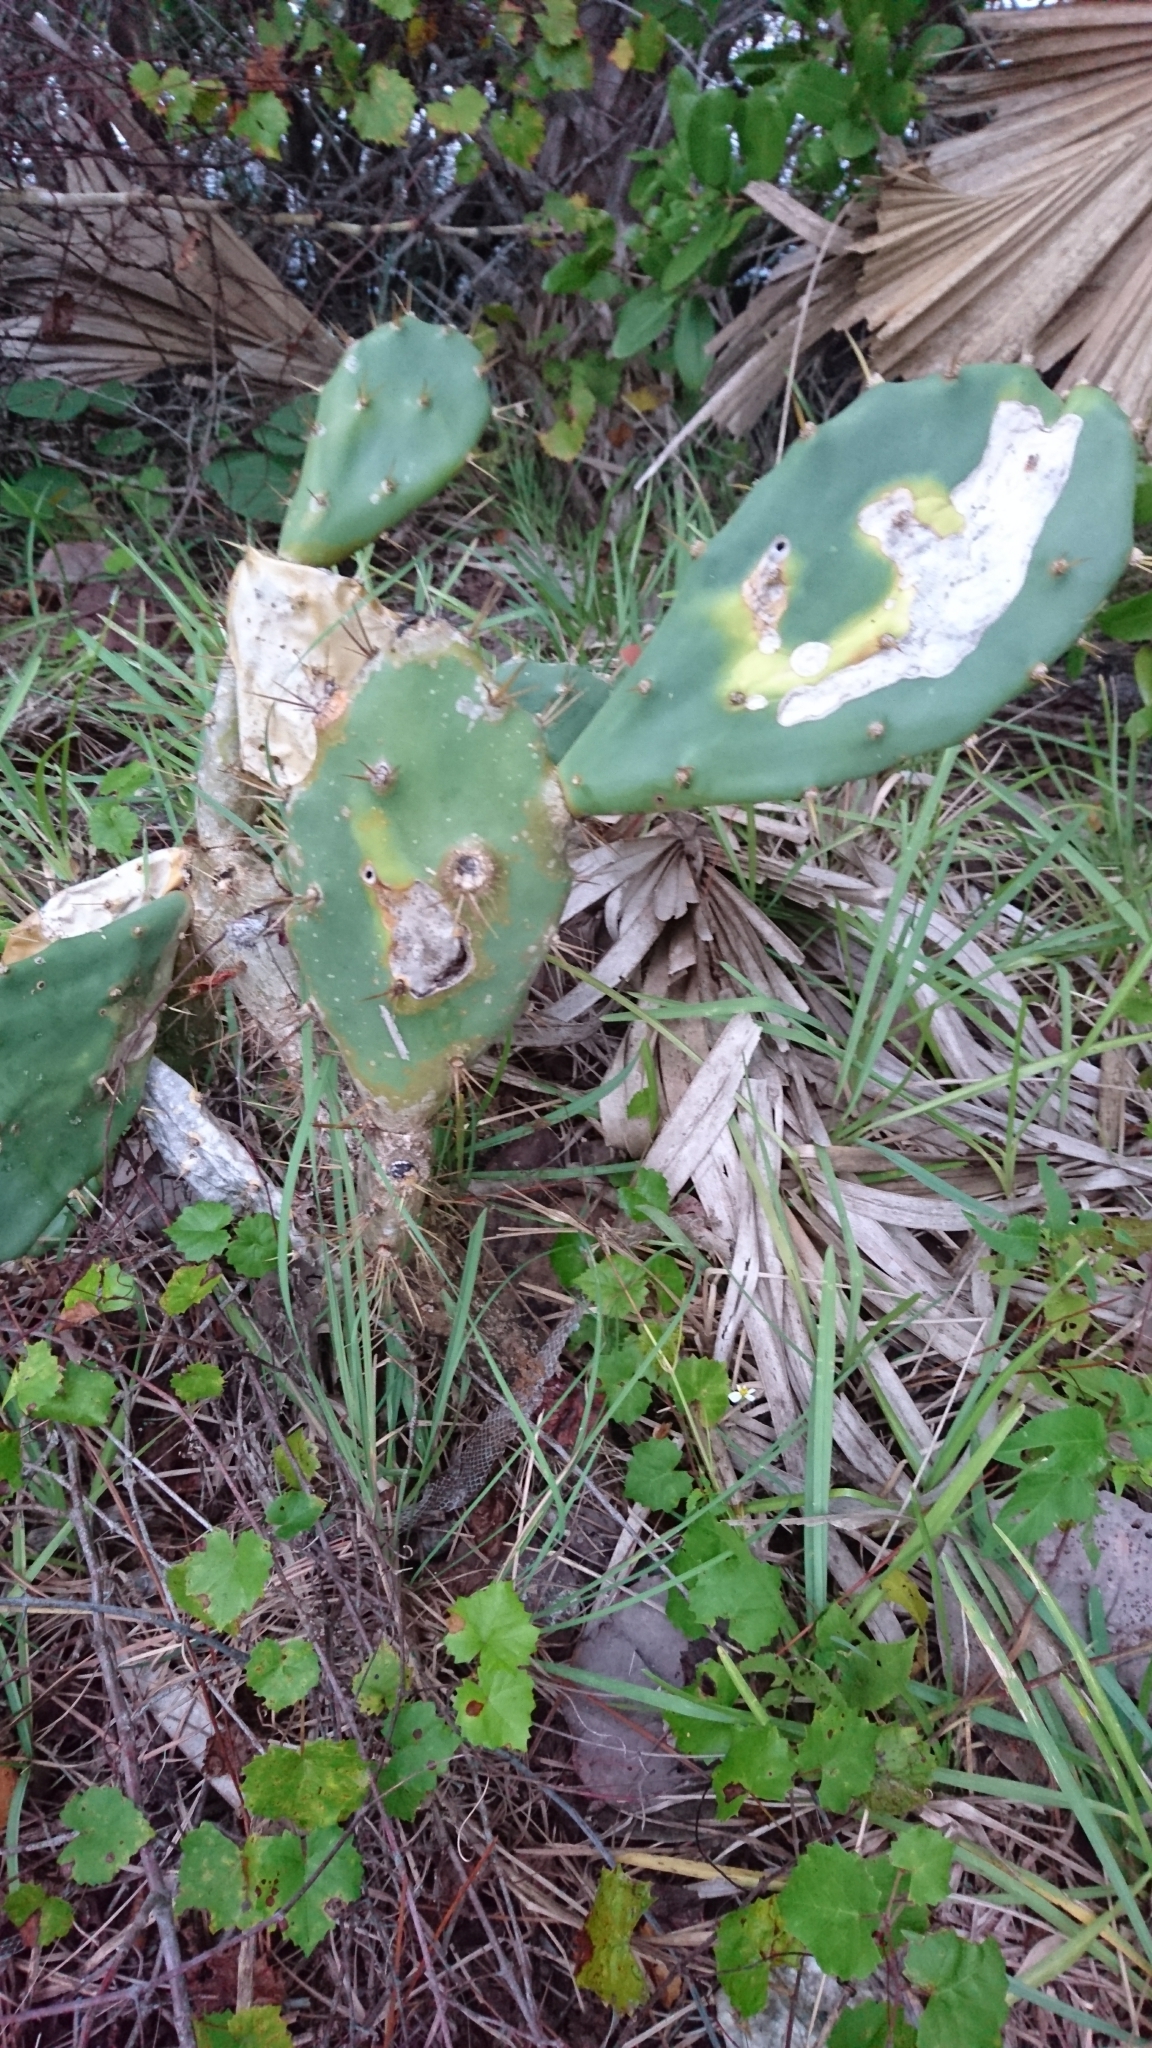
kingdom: Plantae
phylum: Tracheophyta
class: Magnoliopsida
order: Caryophyllales
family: Cactaceae
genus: Opuntia
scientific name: Opuntia stricta
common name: Erect pricklypear
